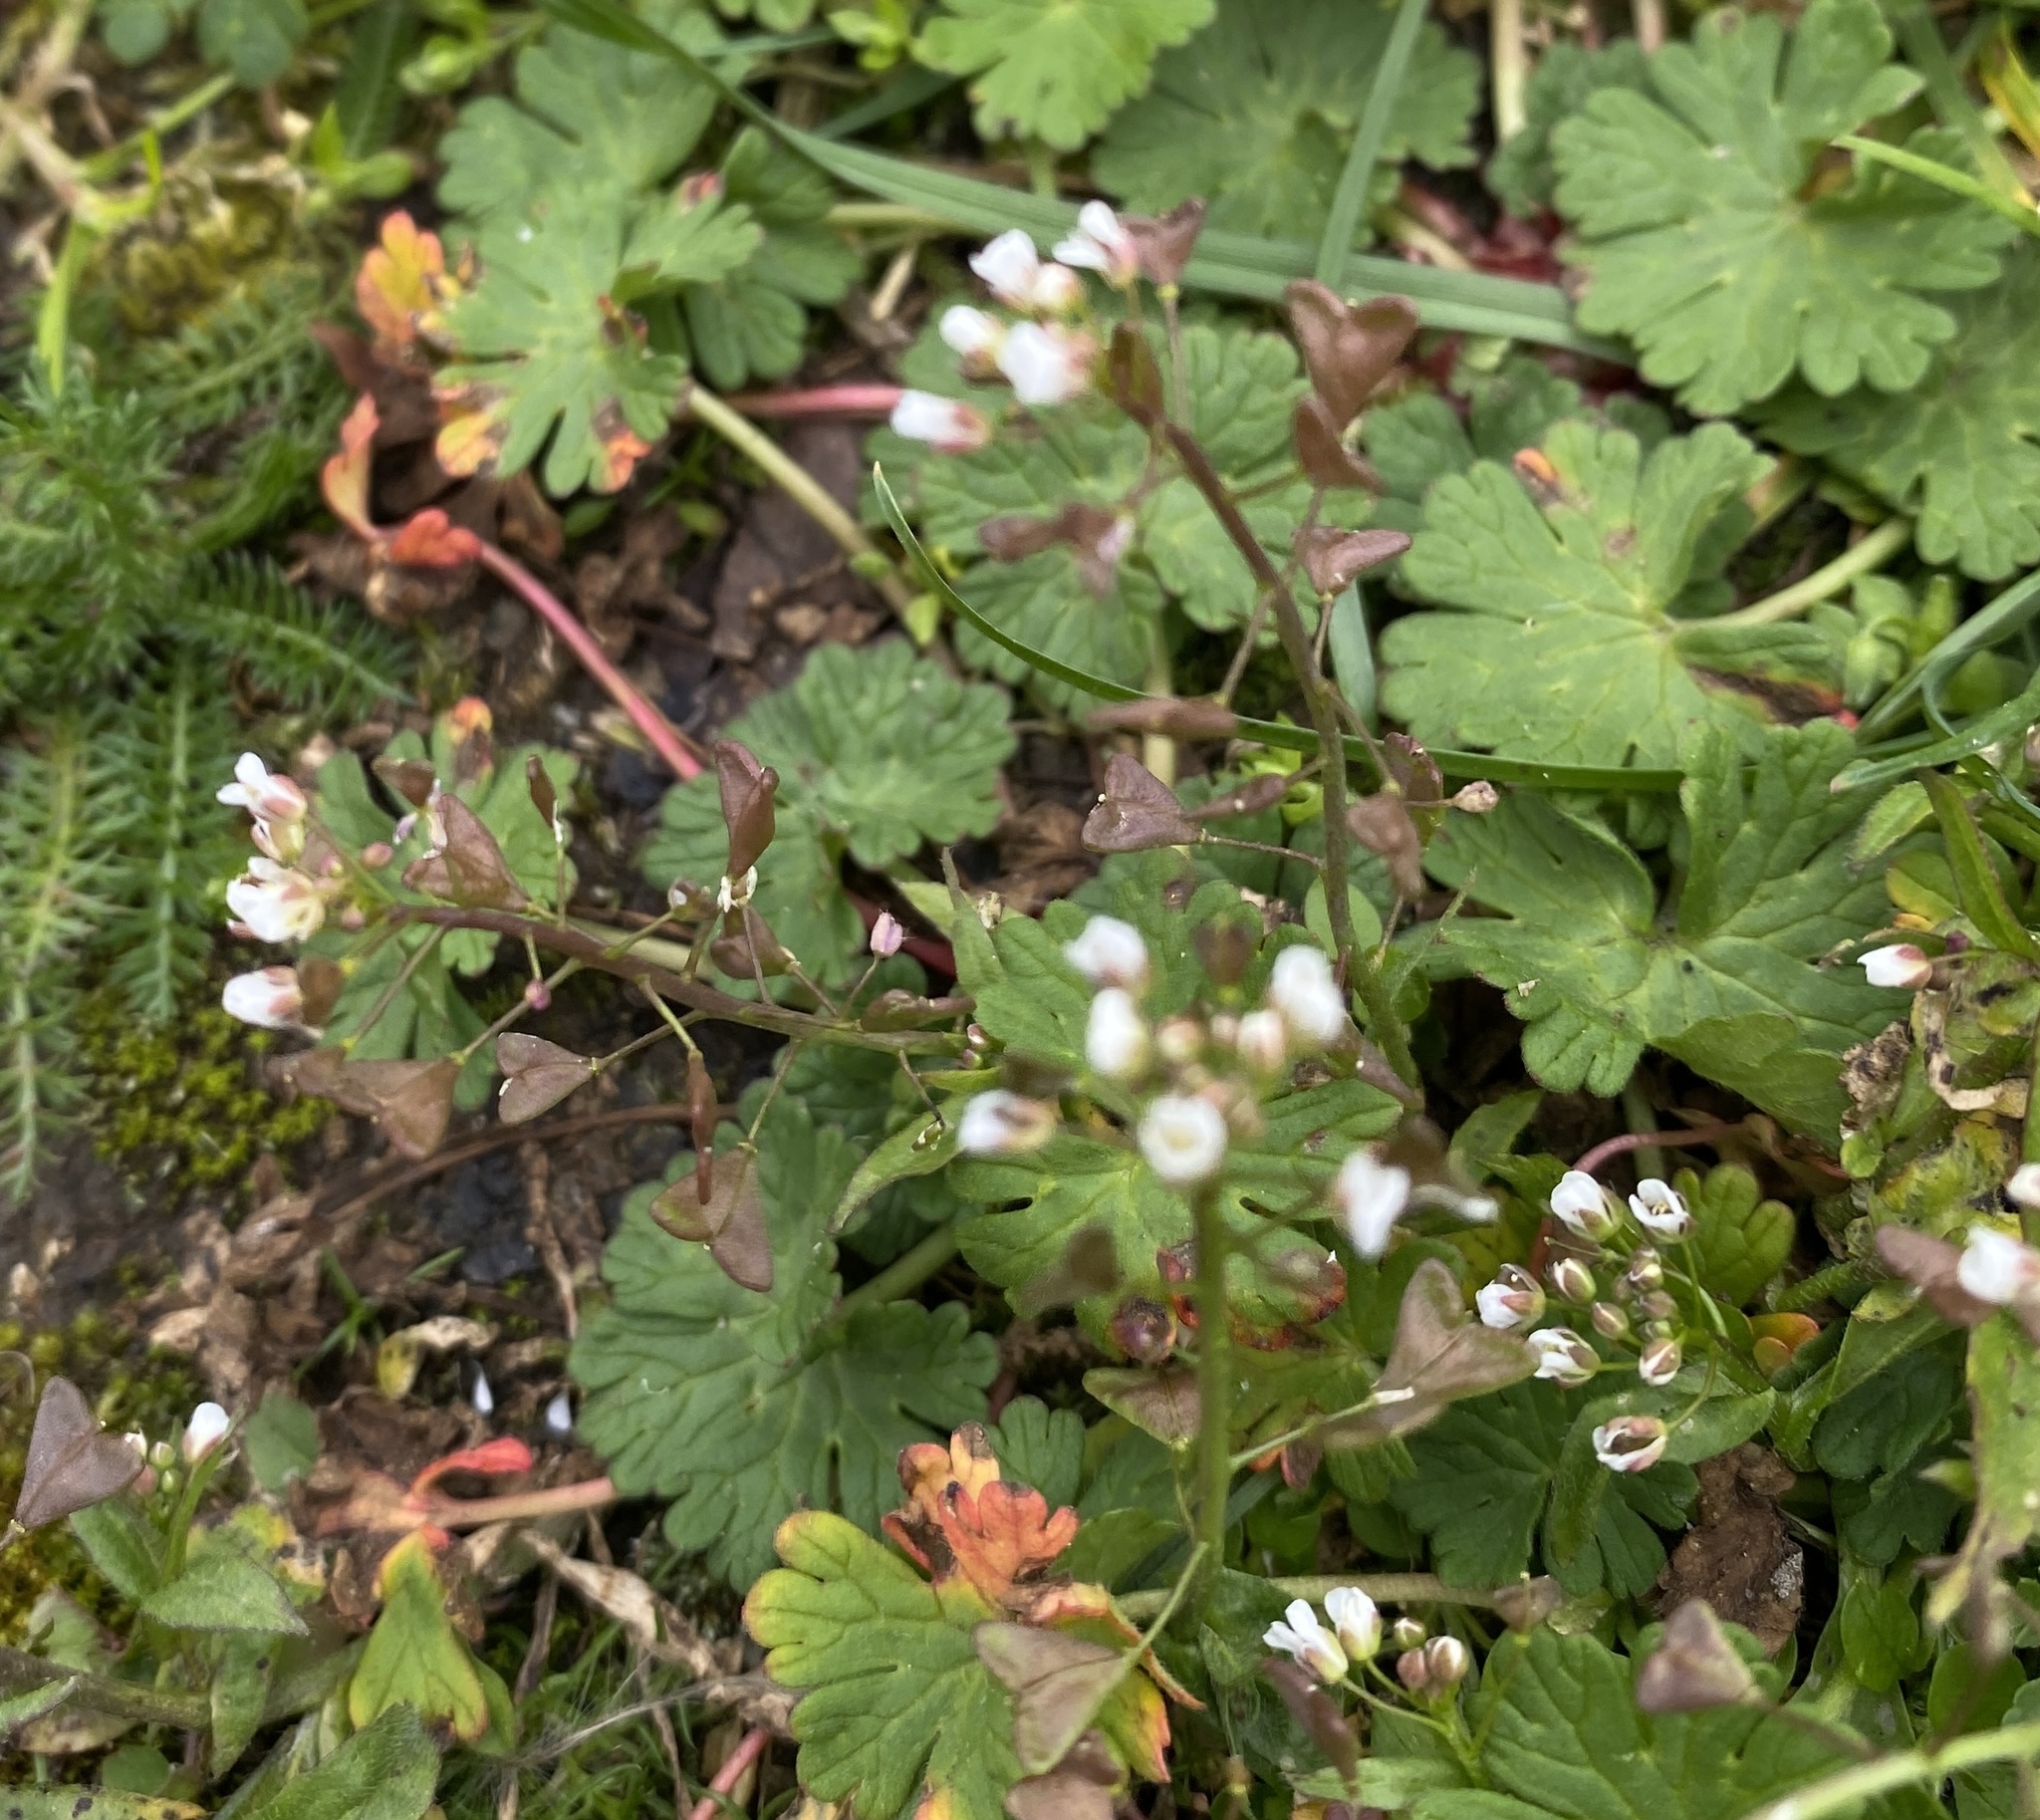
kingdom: Plantae
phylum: Tracheophyta
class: Magnoliopsida
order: Brassicales
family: Brassicaceae
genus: Capsella
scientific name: Capsella bursa-pastoris
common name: Shepherd's purse
